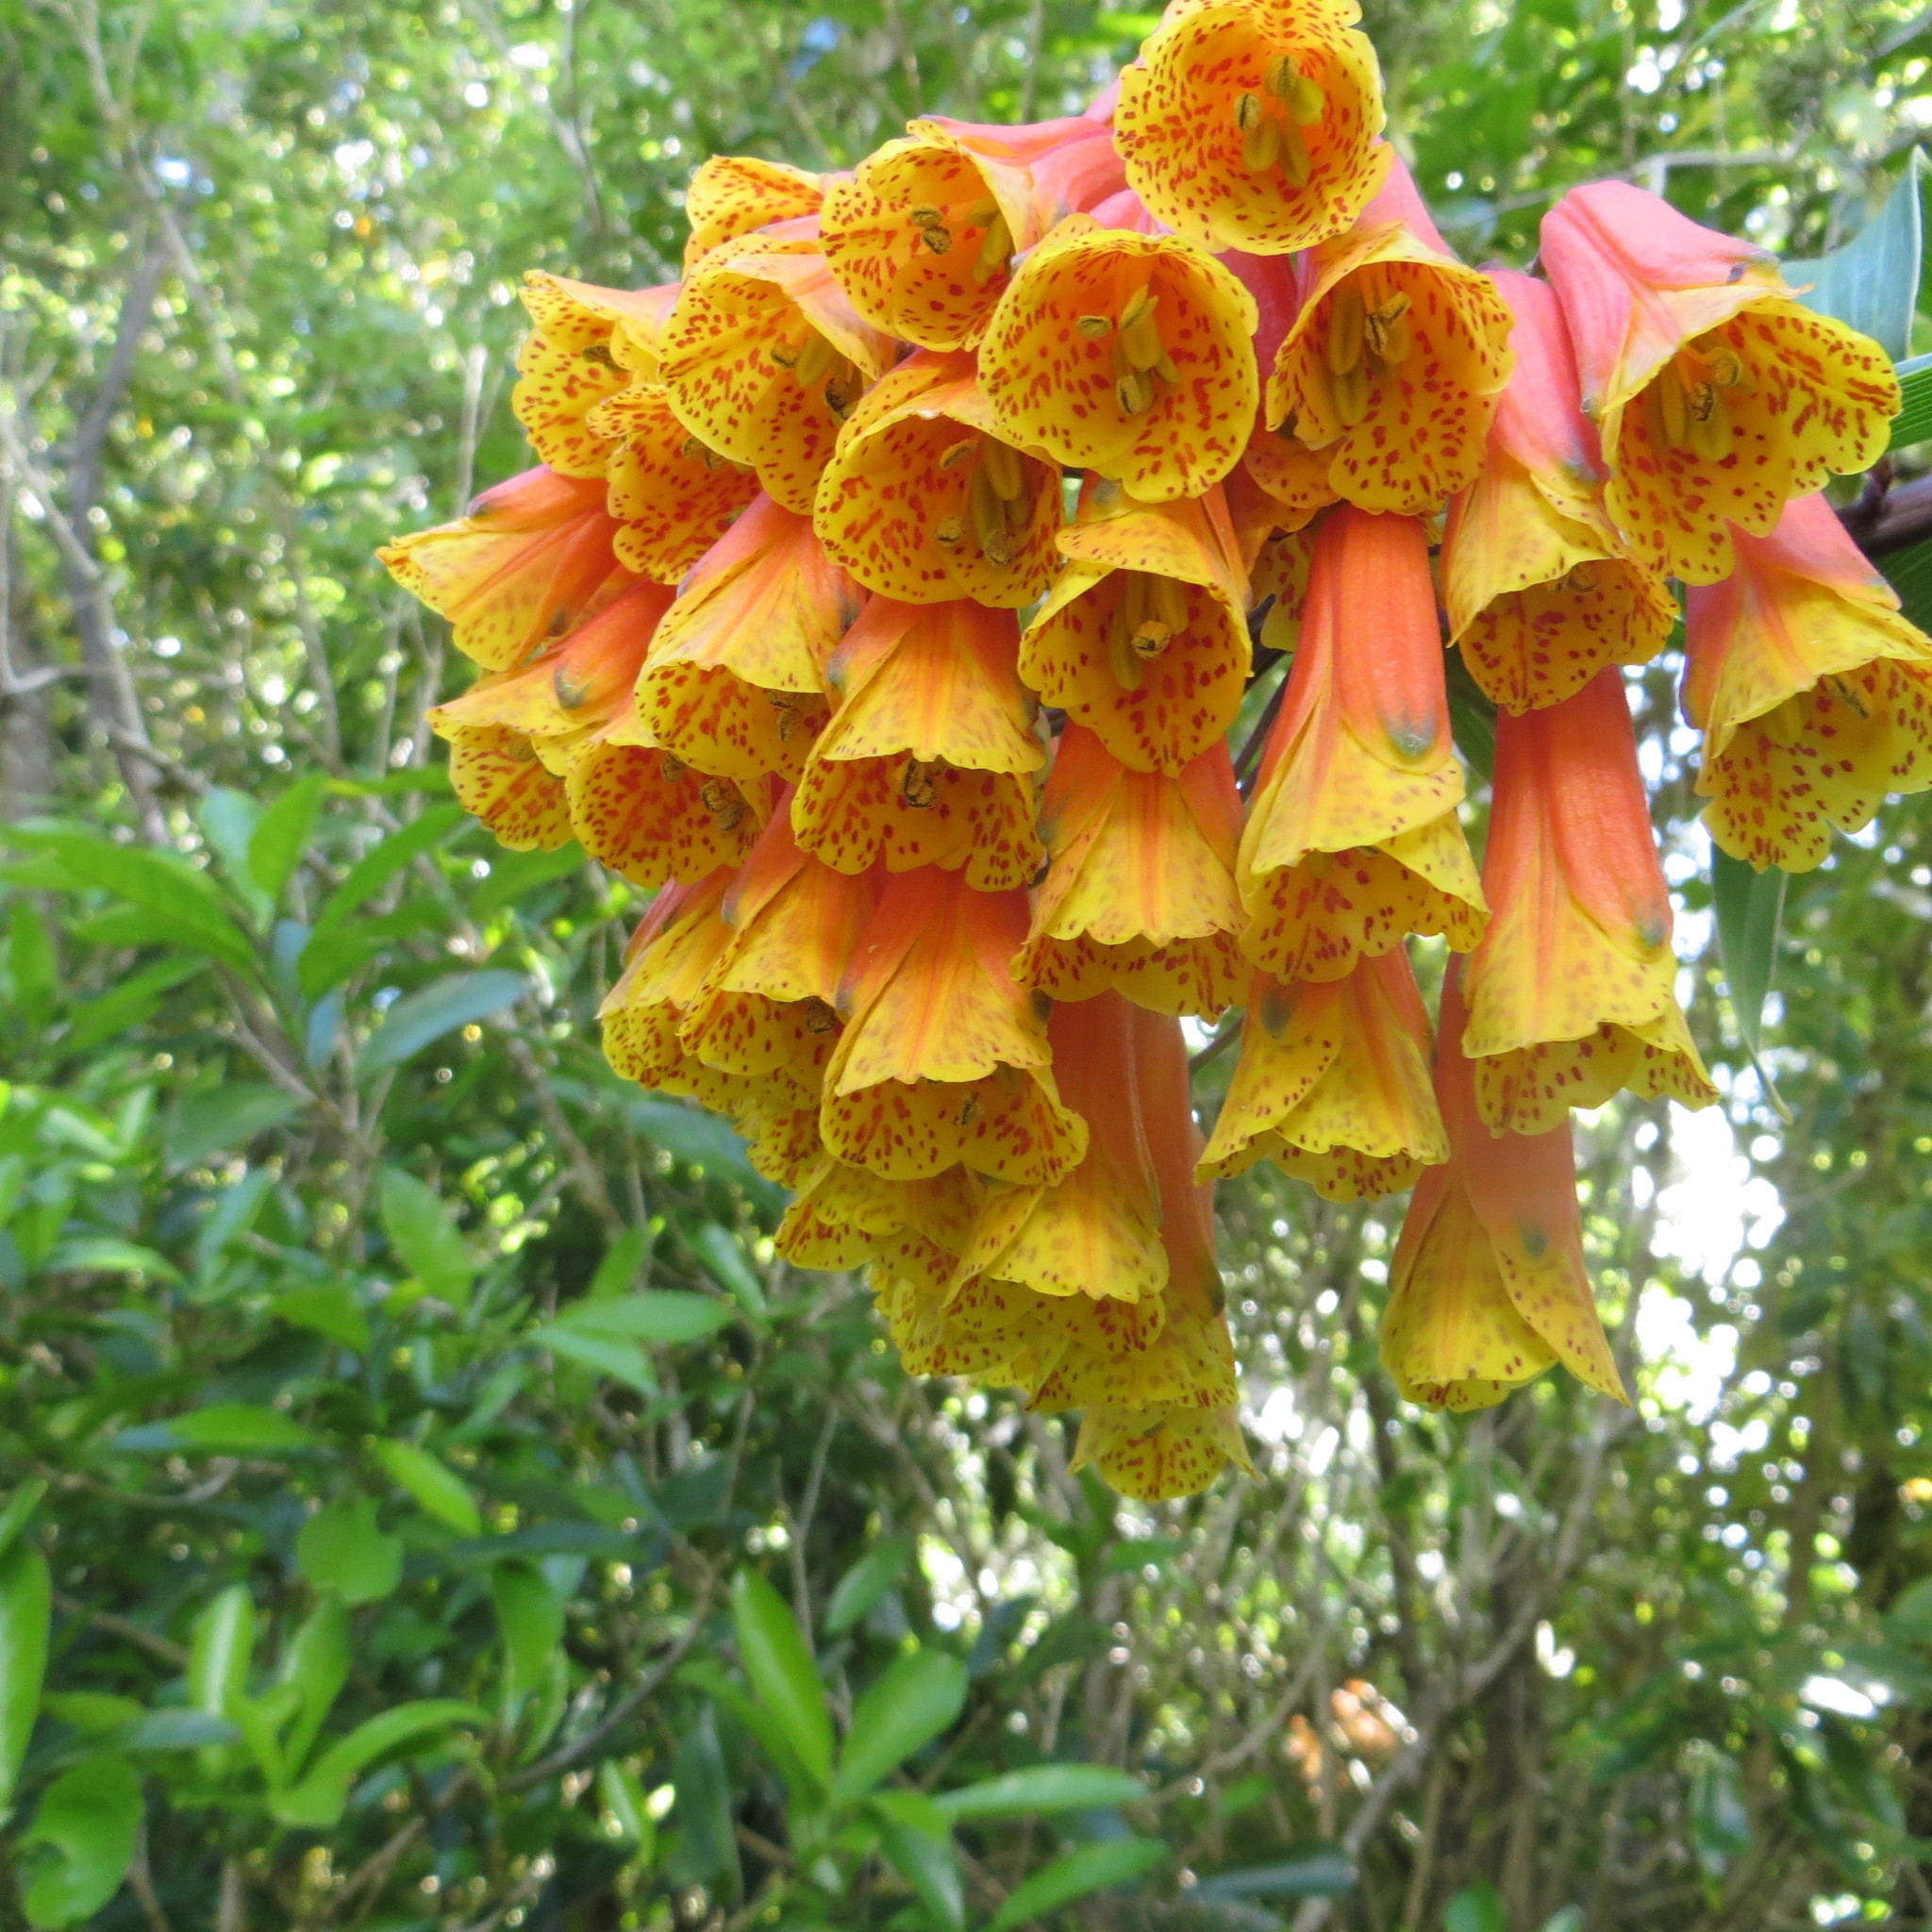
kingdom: Plantae
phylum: Tracheophyta
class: Liliopsida
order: Liliales
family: Alstroemeriaceae
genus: Bomarea
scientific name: Bomarea multiflora
